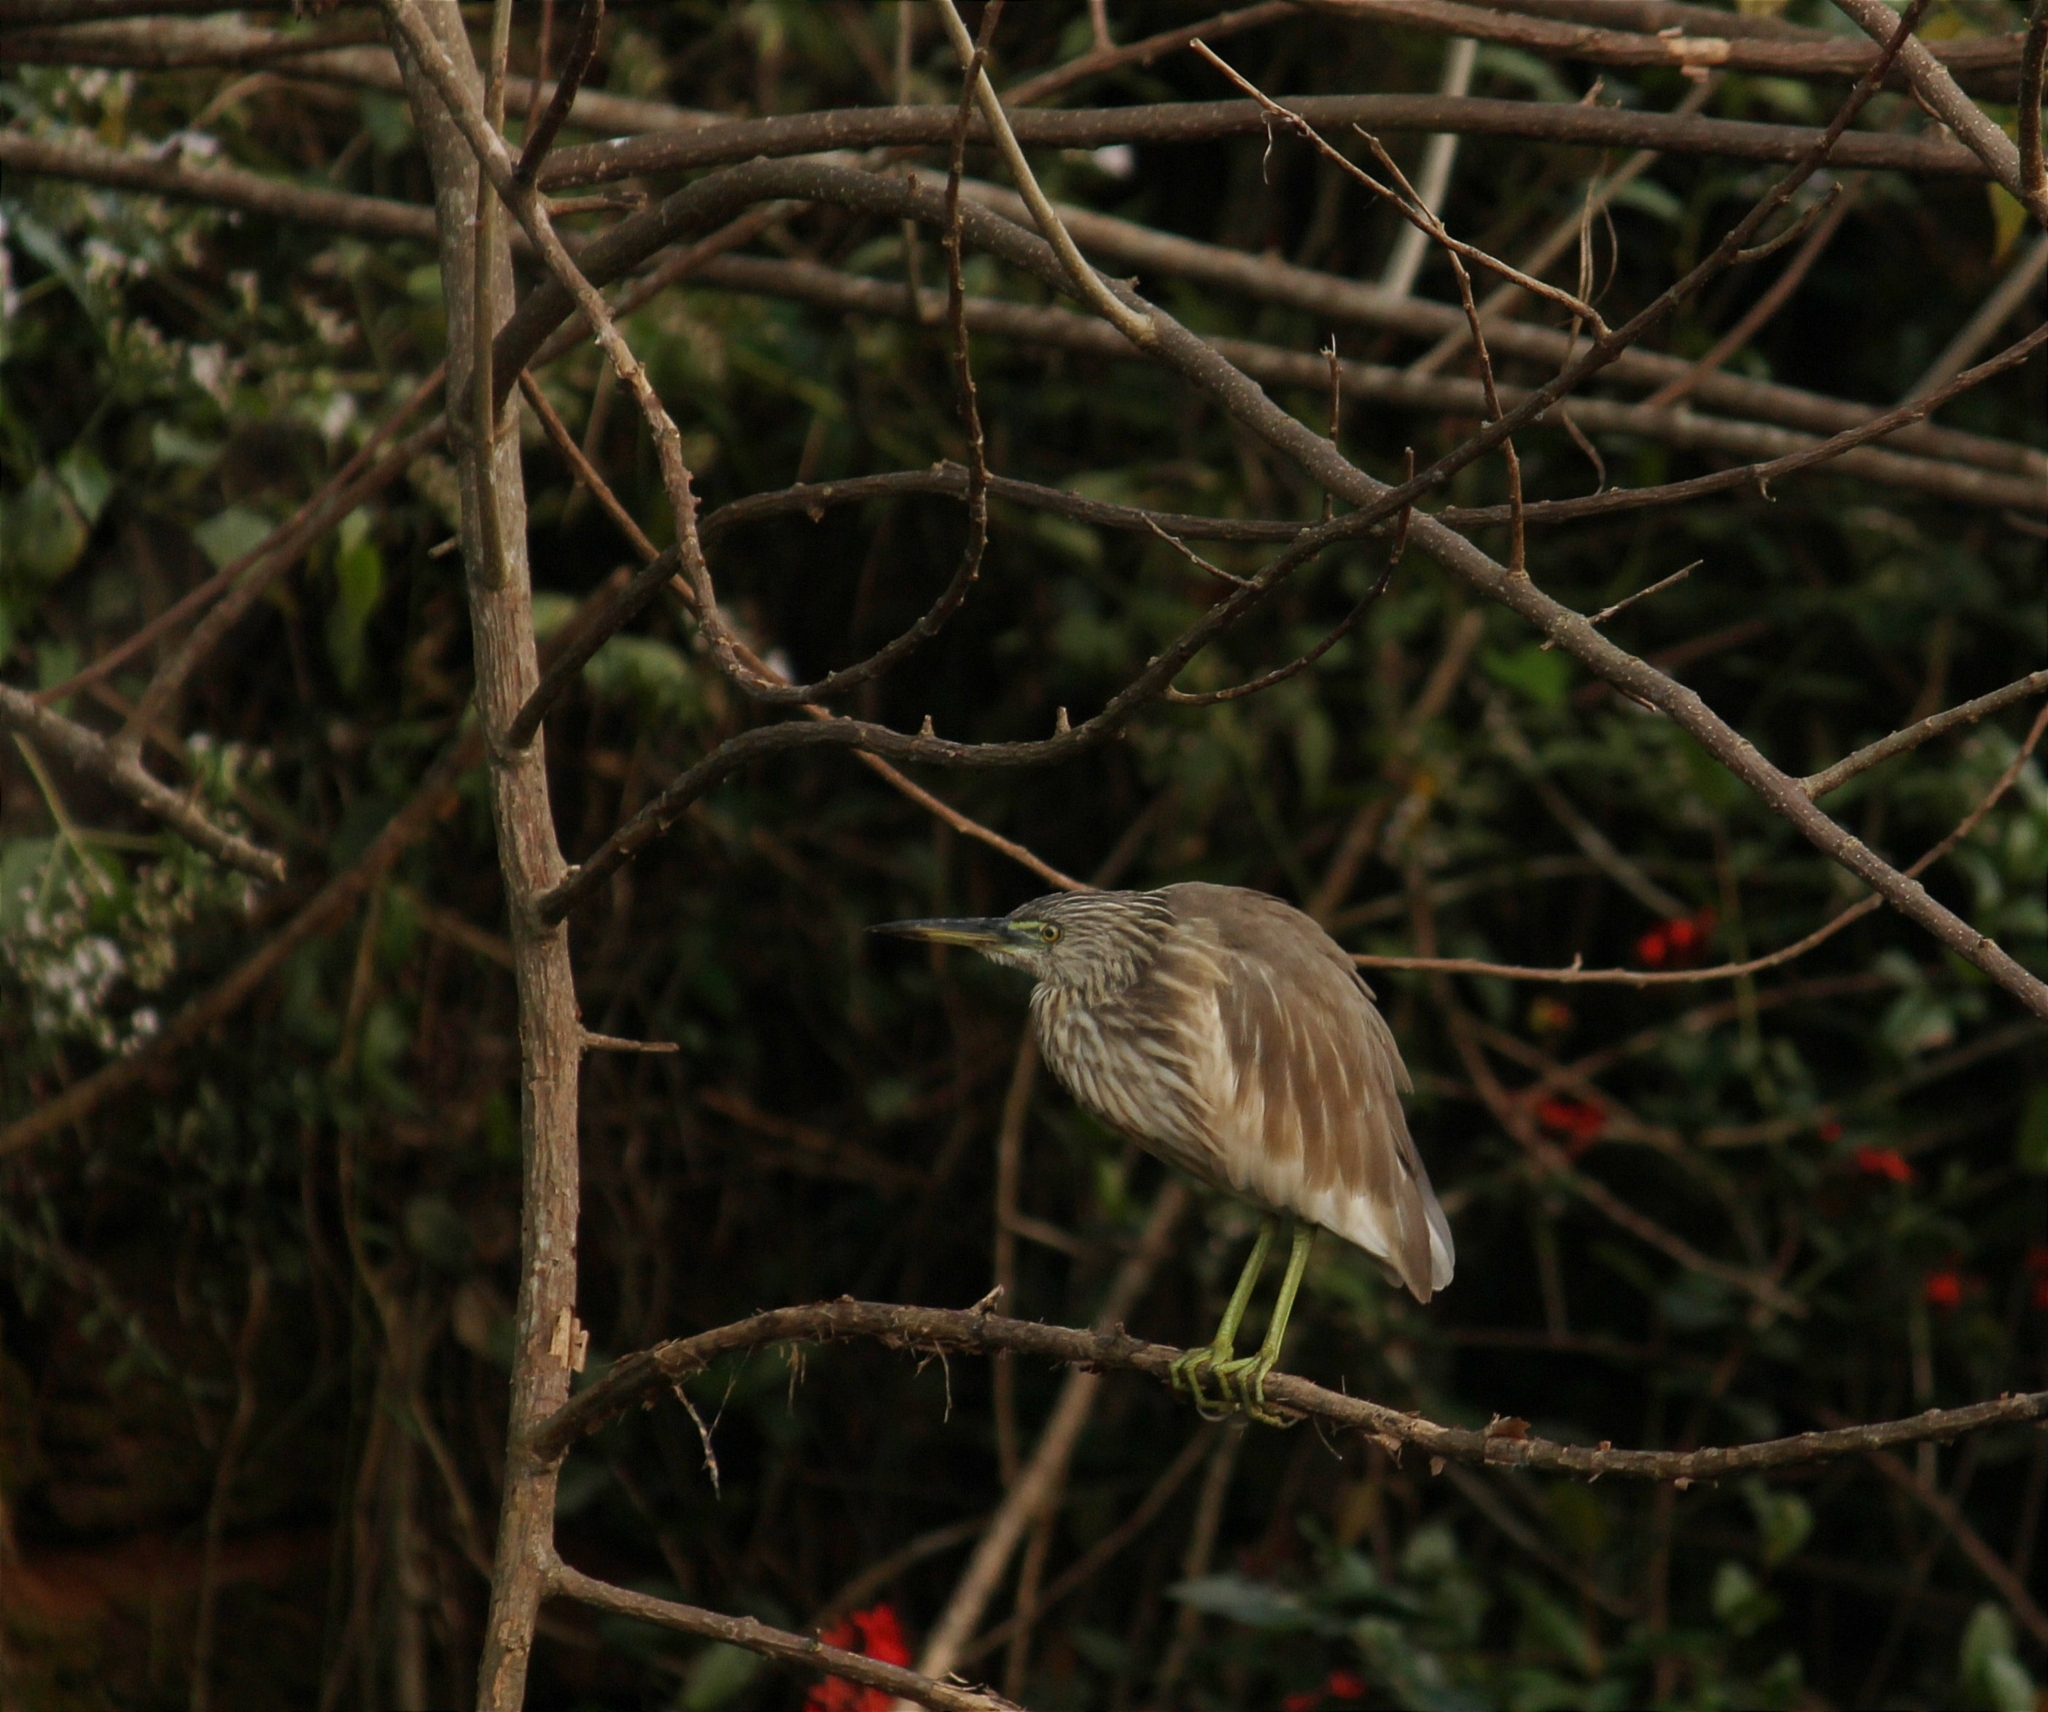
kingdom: Animalia
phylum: Chordata
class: Aves
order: Pelecaniformes
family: Ardeidae
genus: Ardeola
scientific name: Ardeola grayii
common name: Indian pond heron
